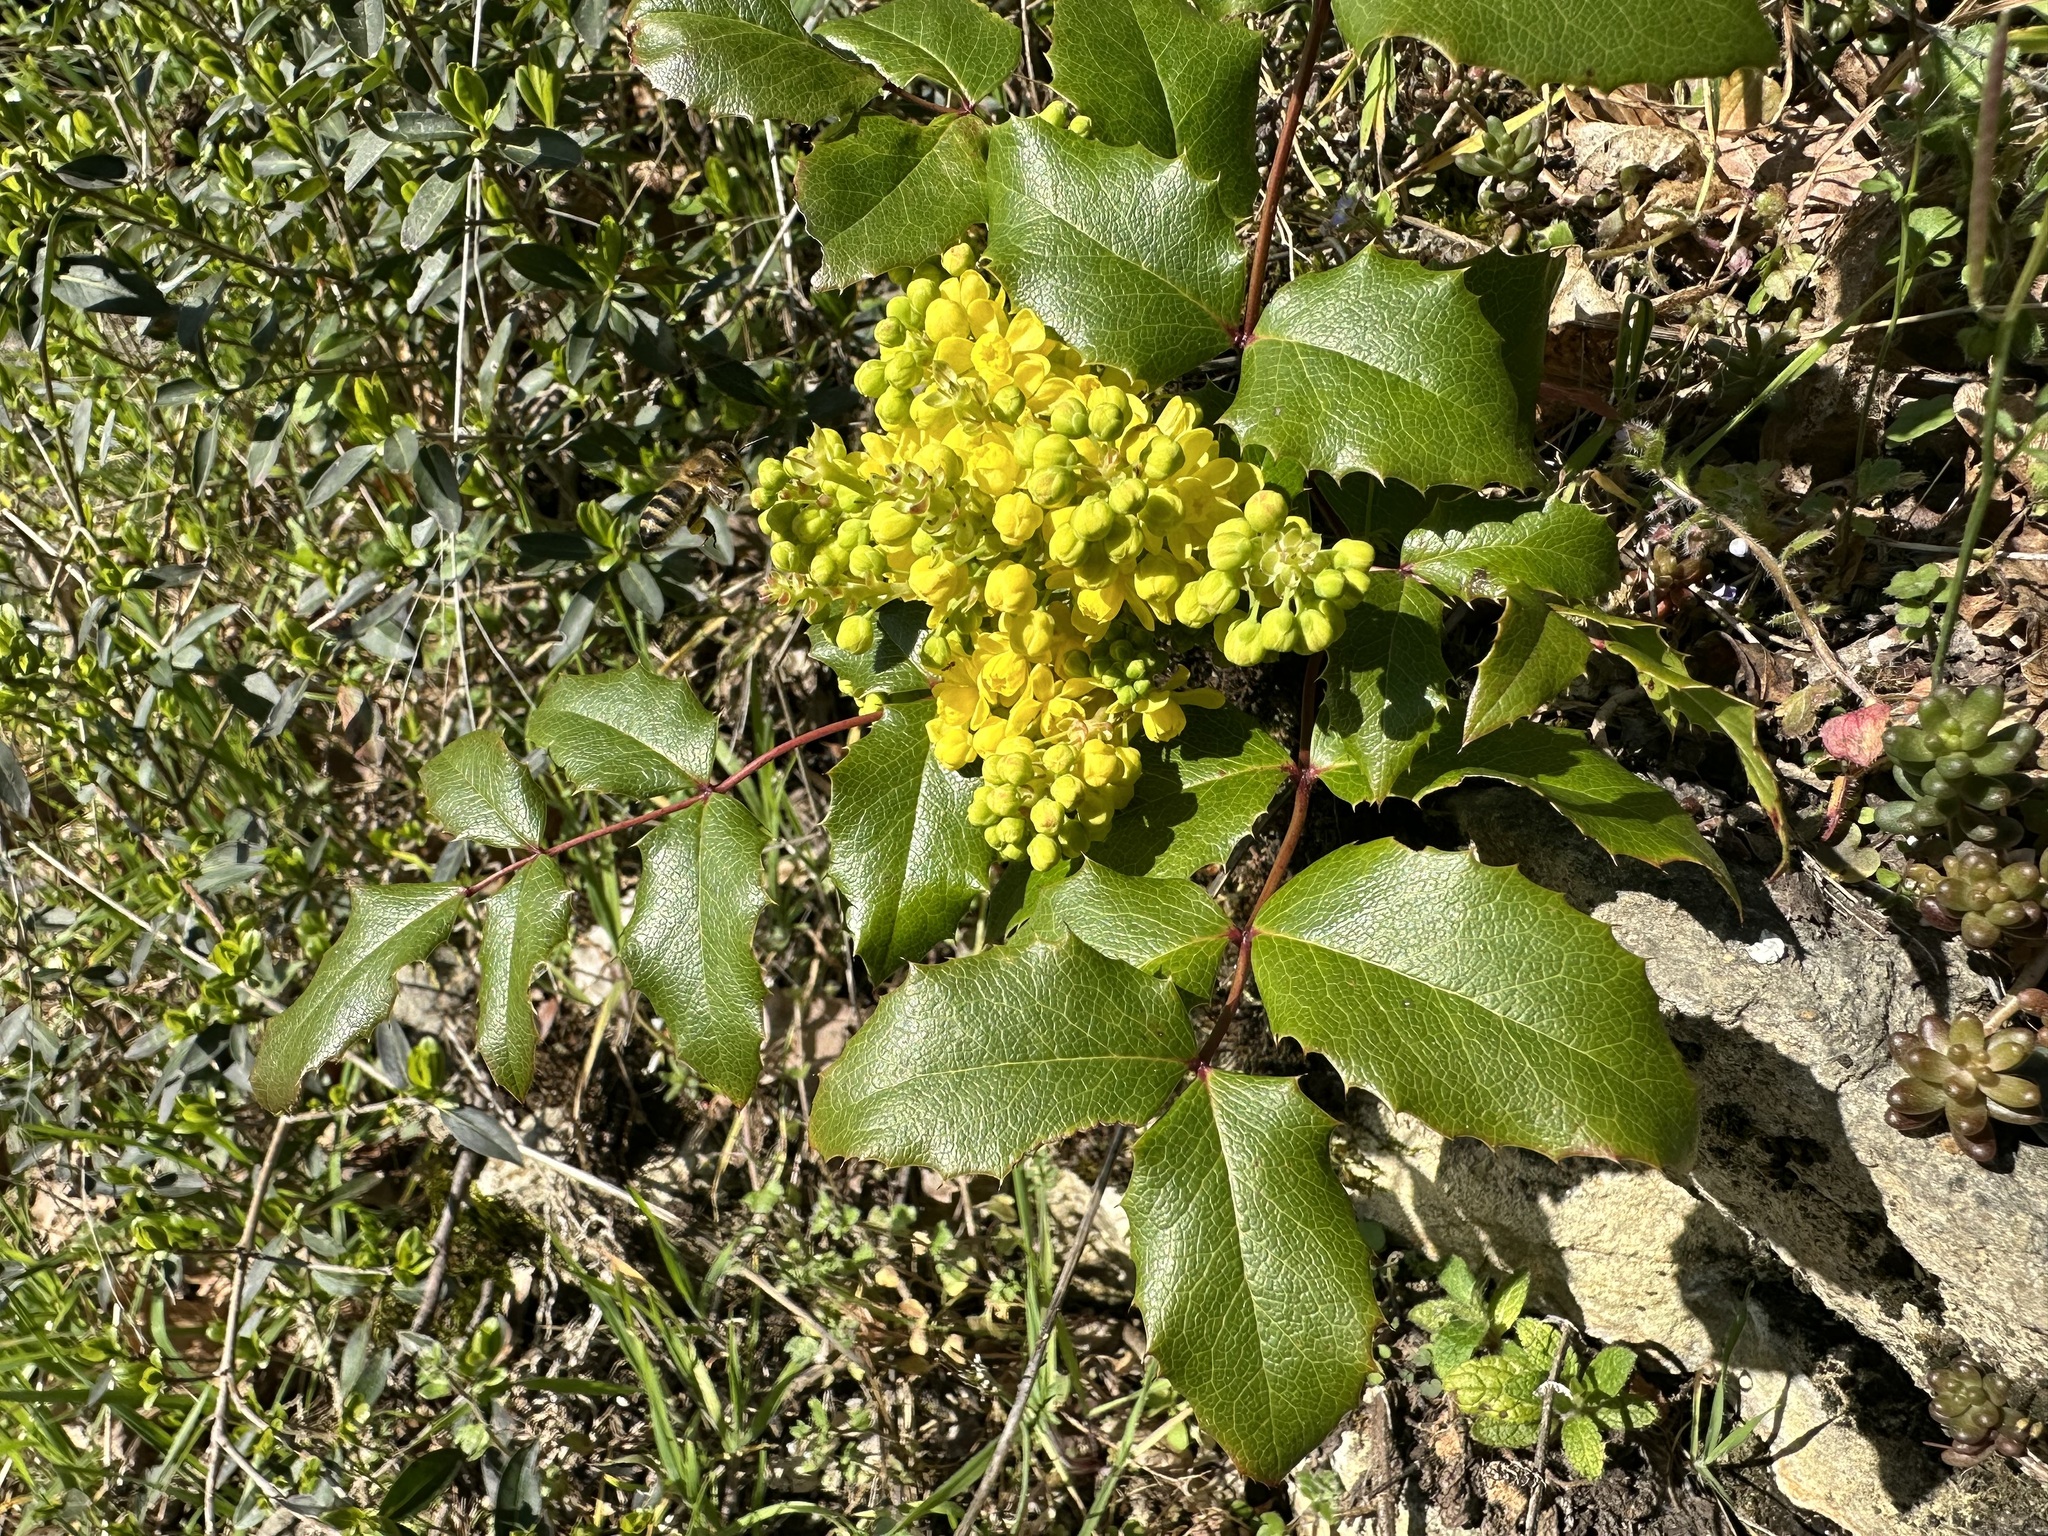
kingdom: Plantae
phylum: Tracheophyta
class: Magnoliopsida
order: Ranunculales
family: Berberidaceae
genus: Mahonia
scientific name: Mahonia aquifolium
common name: Oregon-grape
